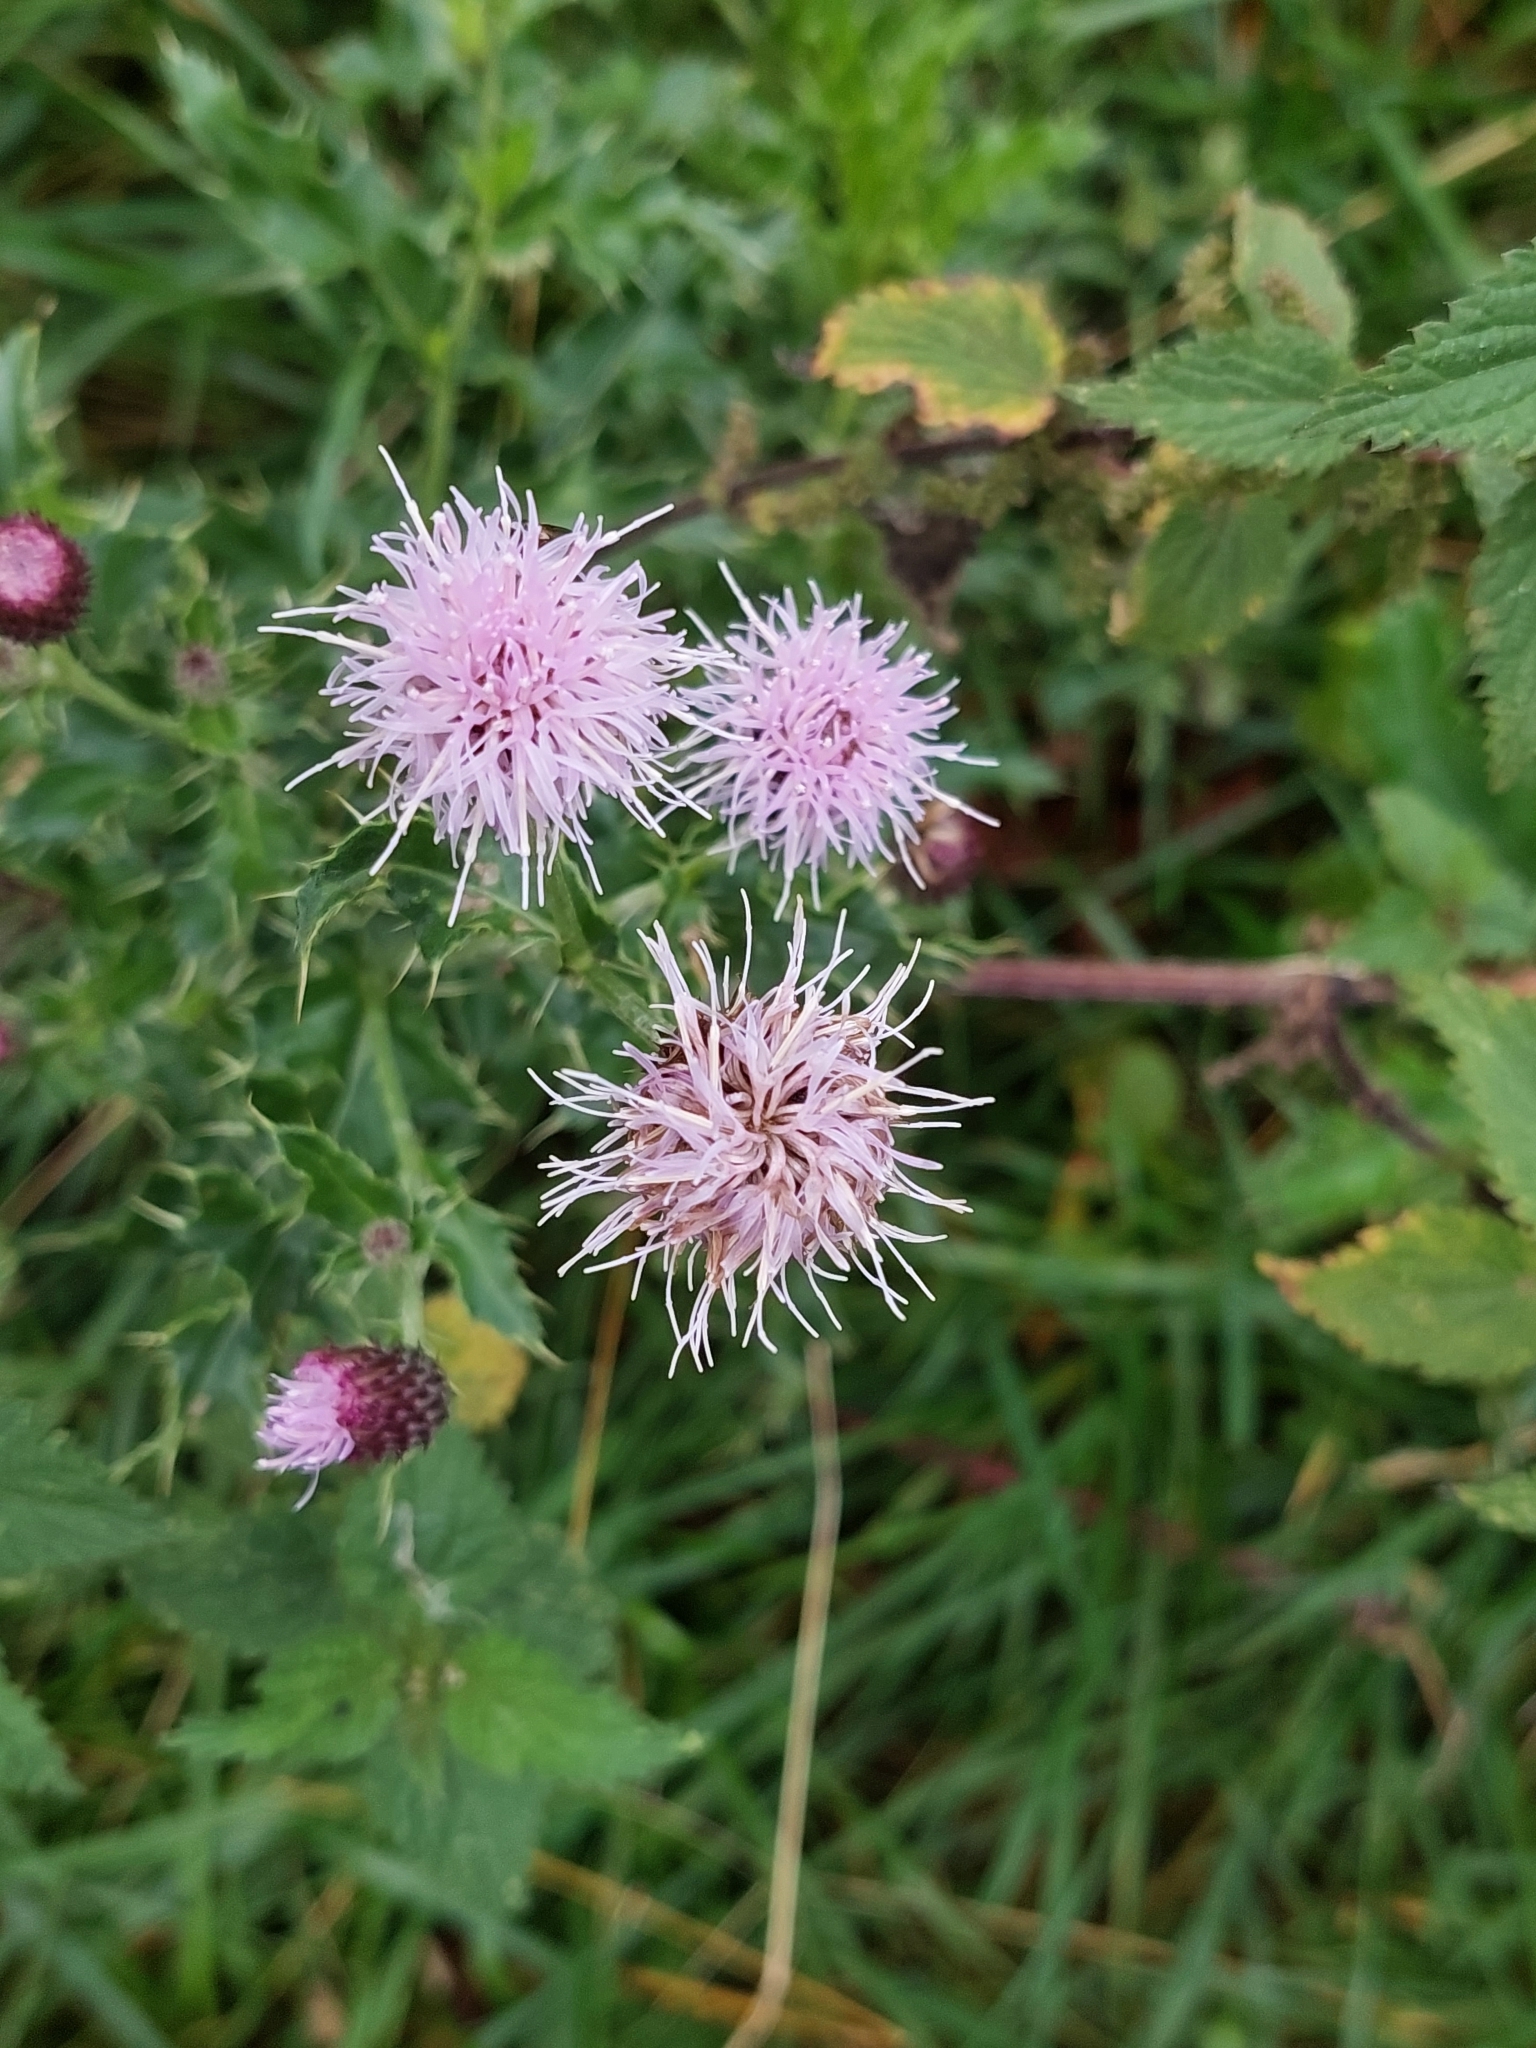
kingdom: Plantae
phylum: Tracheophyta
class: Magnoliopsida
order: Asterales
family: Asteraceae
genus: Cirsium
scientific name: Cirsium arvense
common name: Creeping thistle
